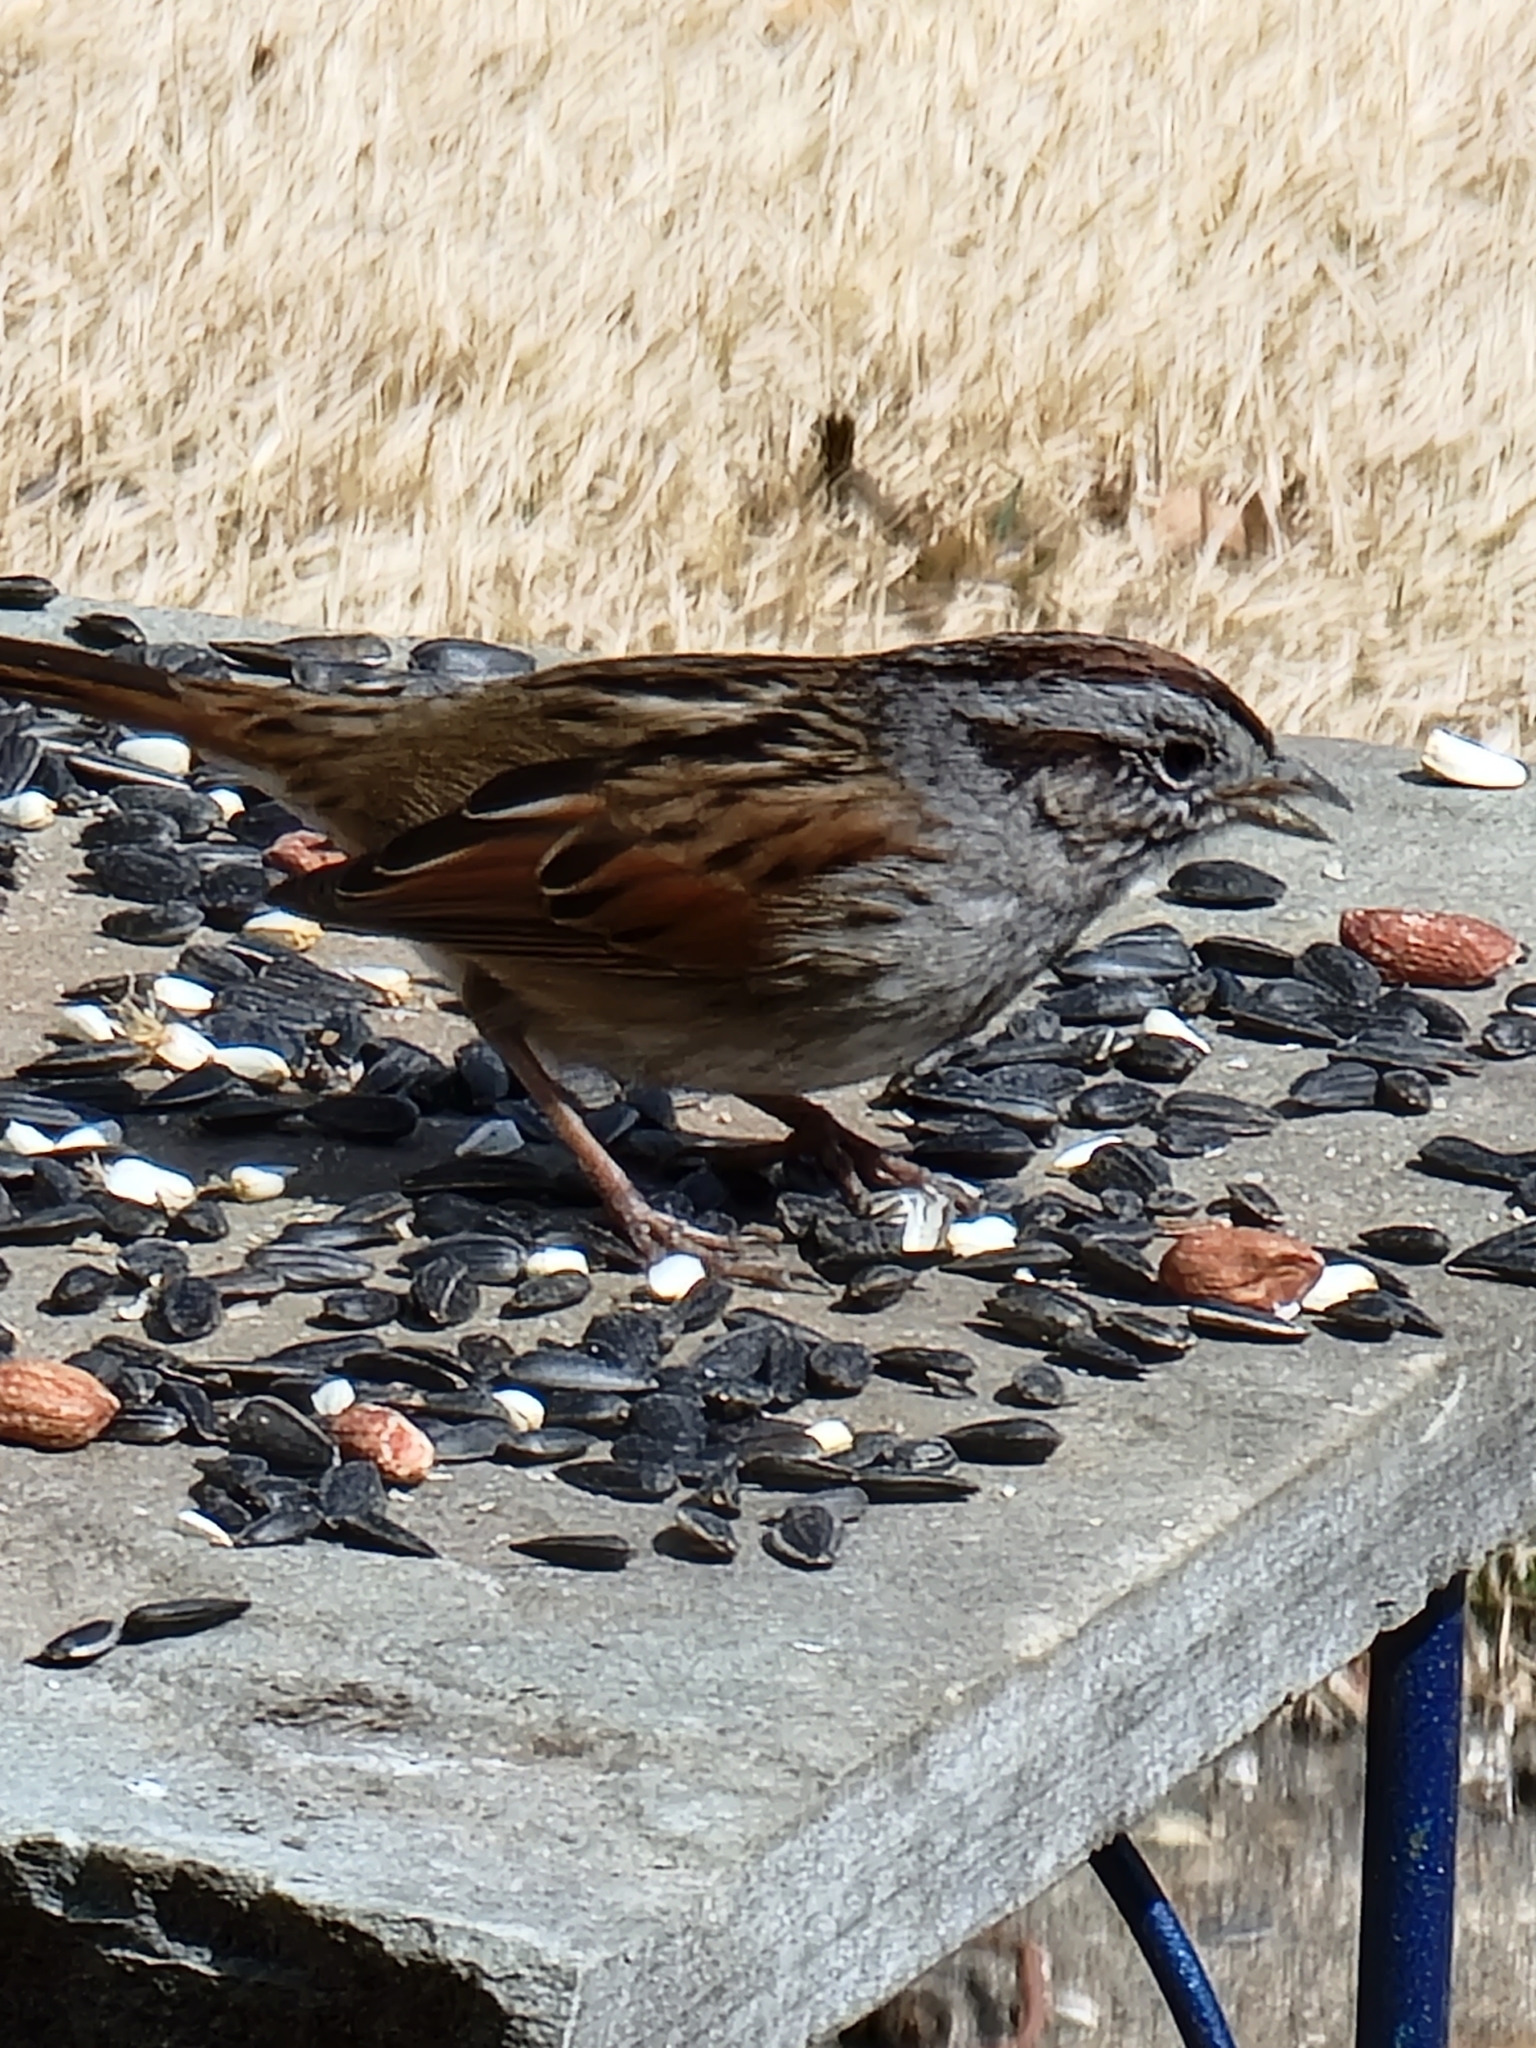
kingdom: Animalia
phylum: Chordata
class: Aves
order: Passeriformes
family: Passerellidae
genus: Melospiza
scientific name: Melospiza georgiana
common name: Swamp sparrow
